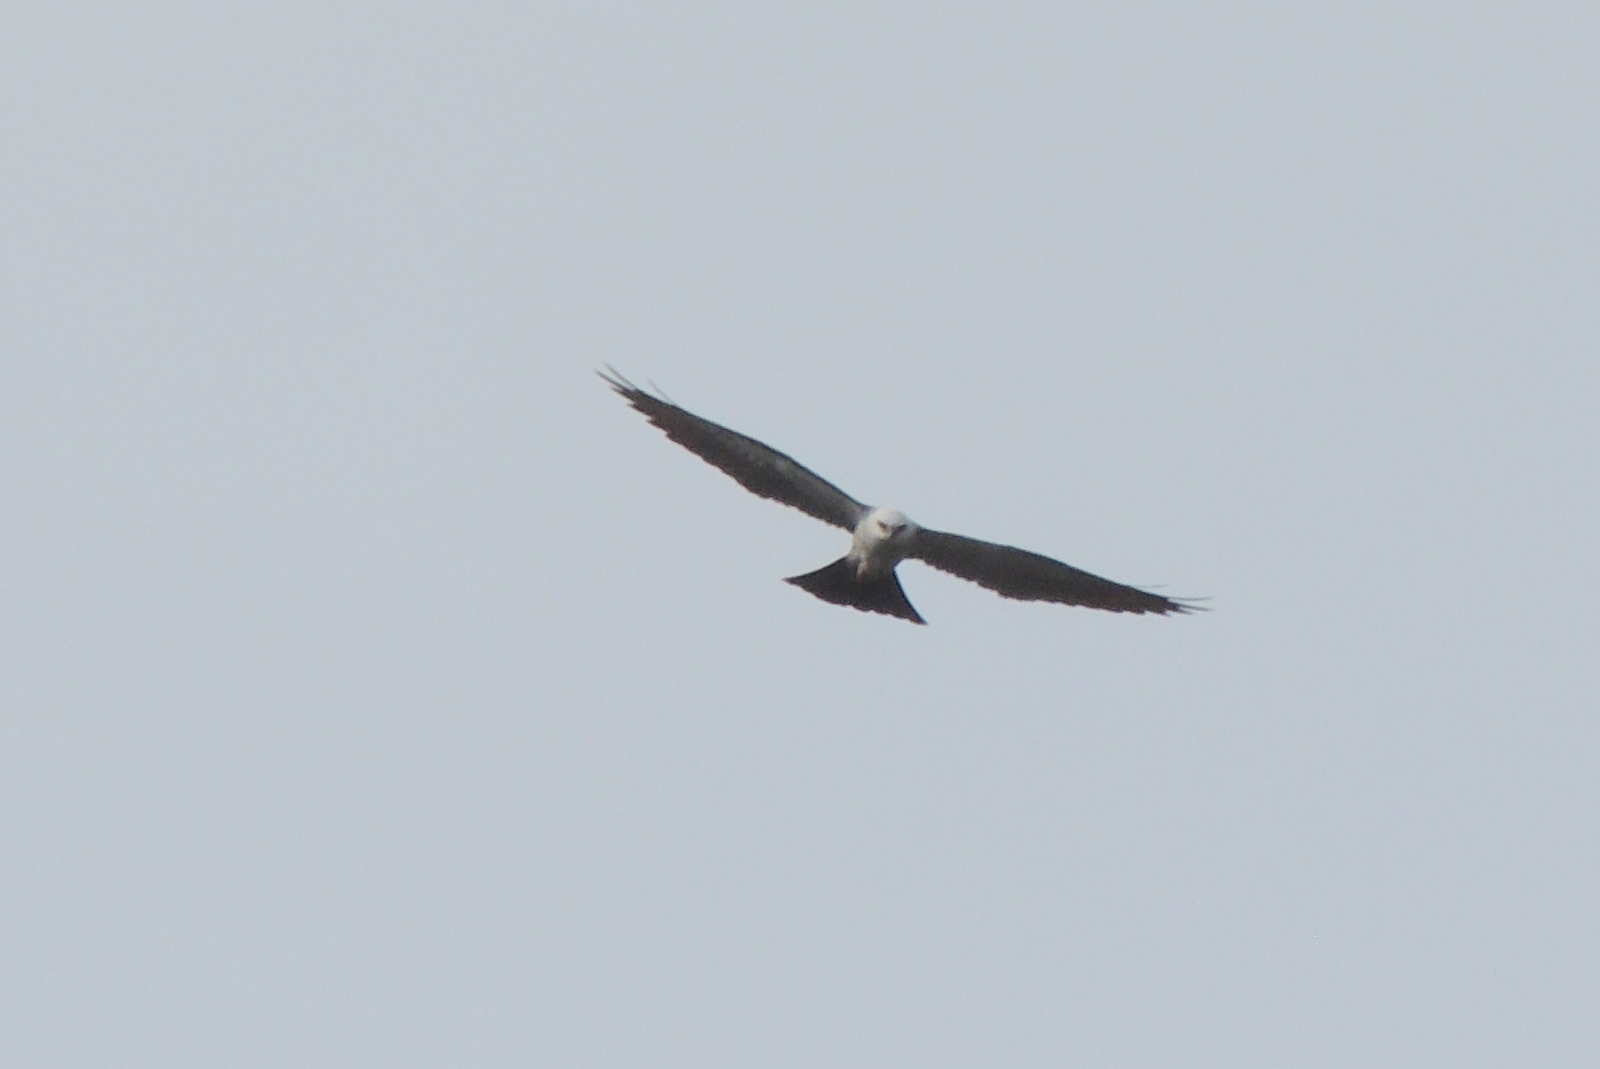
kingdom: Animalia
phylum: Chordata
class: Aves
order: Accipitriformes
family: Accipitridae
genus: Ictinia
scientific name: Ictinia mississippiensis
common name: Mississippi kite
